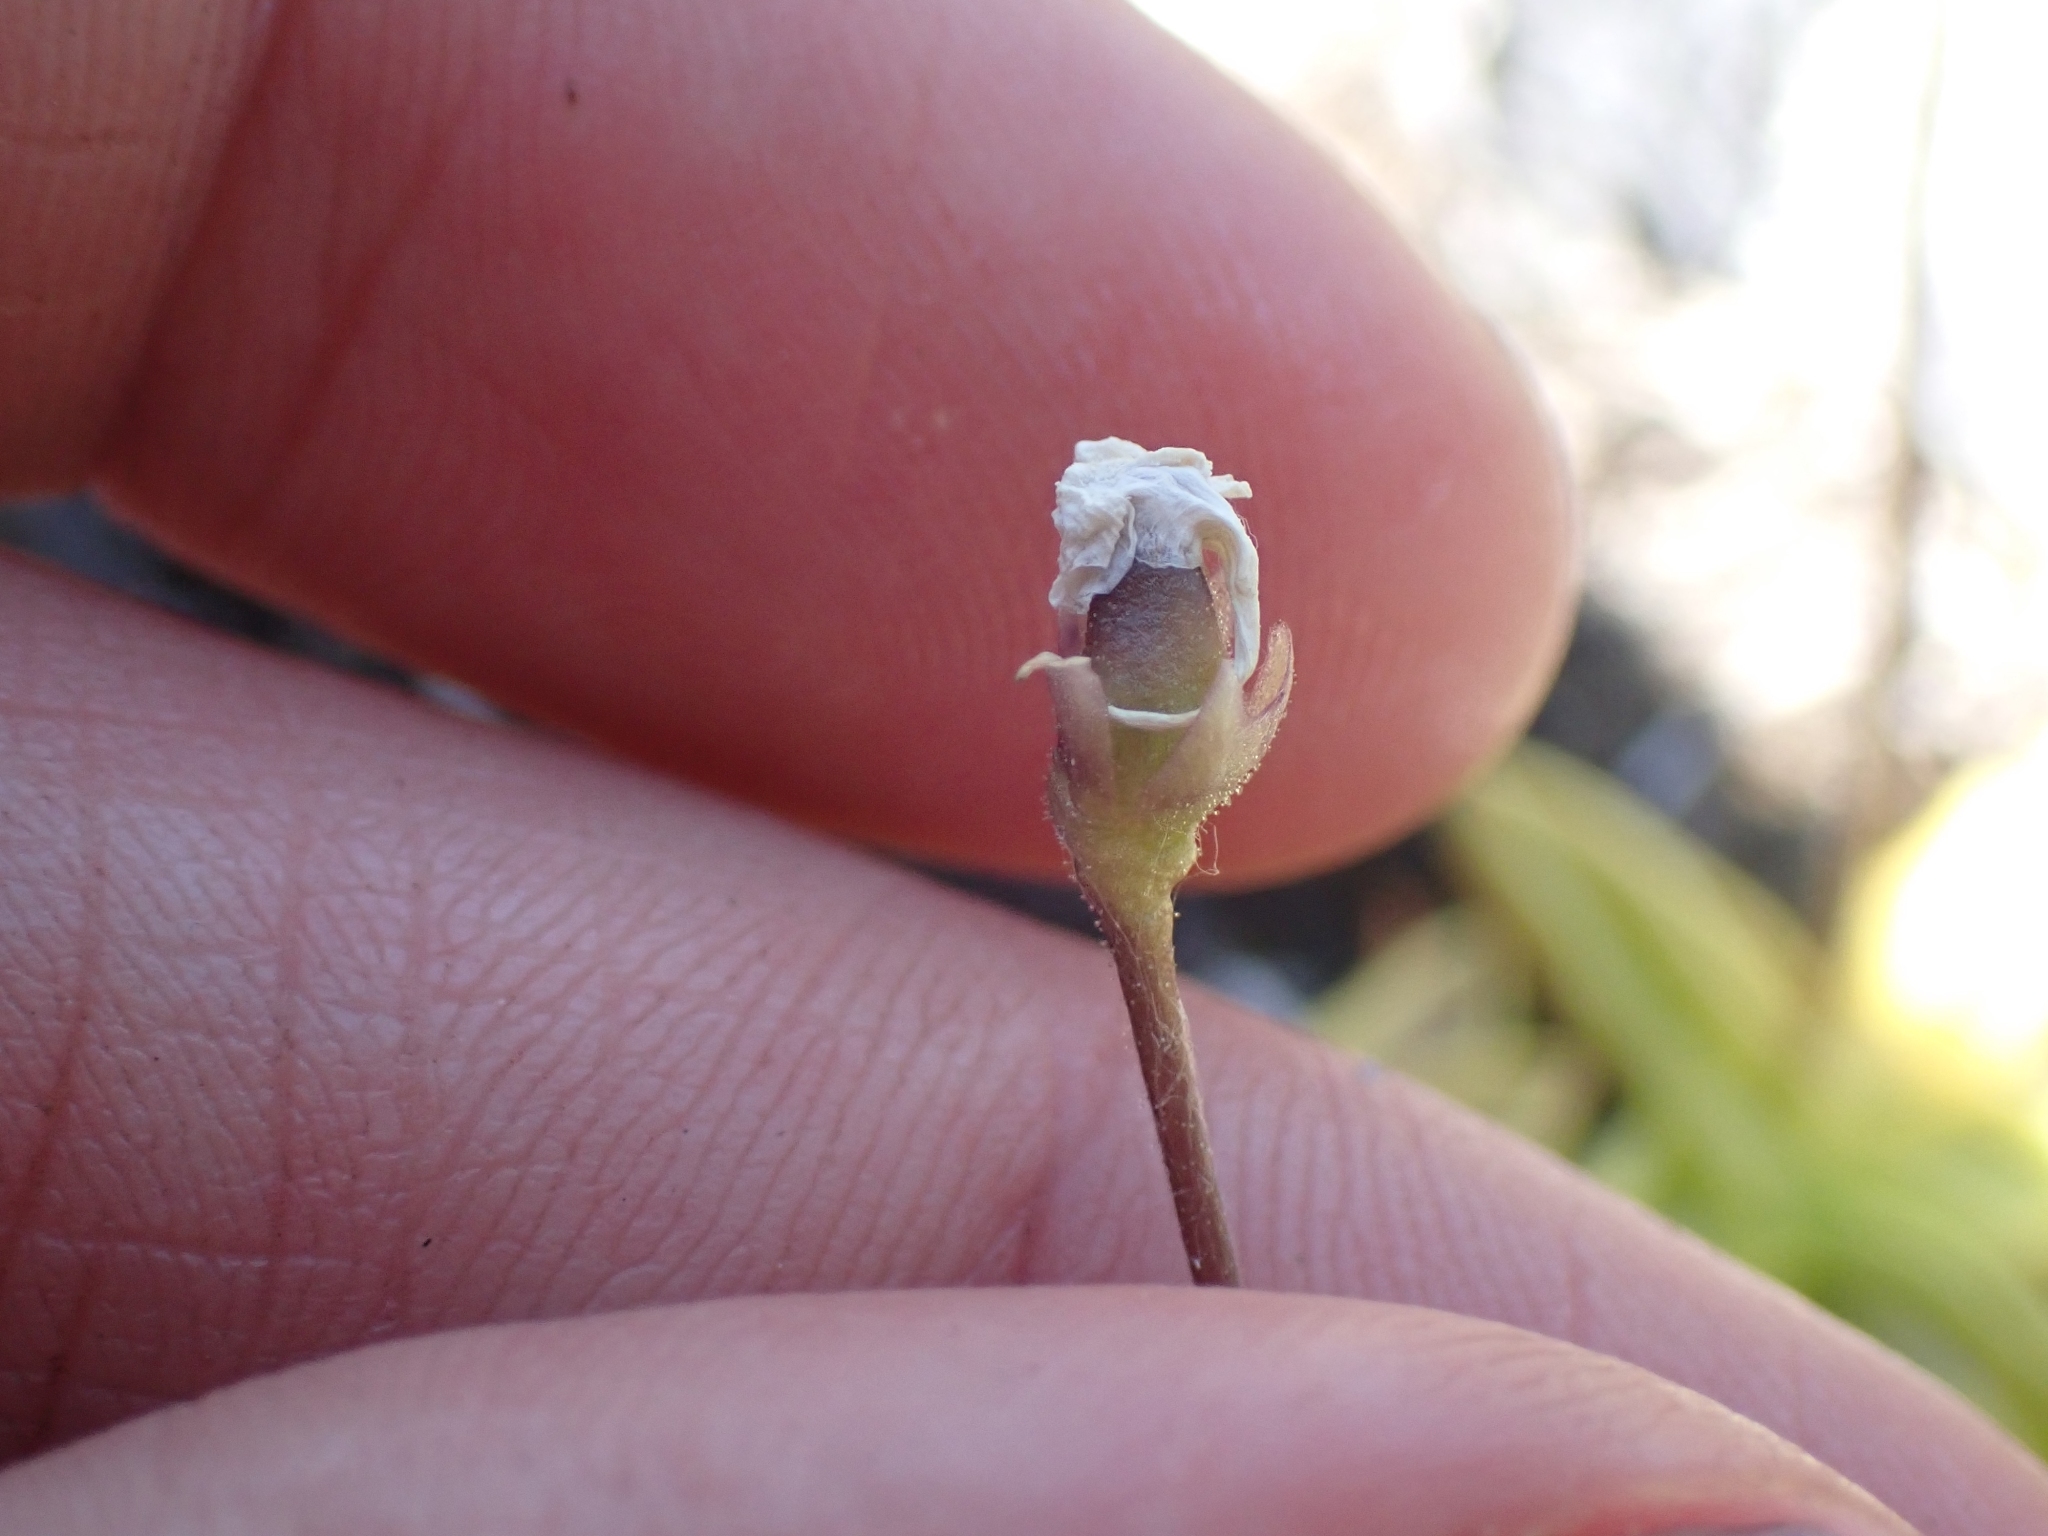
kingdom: Plantae
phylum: Tracheophyta
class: Magnoliopsida
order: Lamiales
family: Lentibulariaceae
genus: Pinguicula
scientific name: Pinguicula vulgaris
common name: Common butterwort
